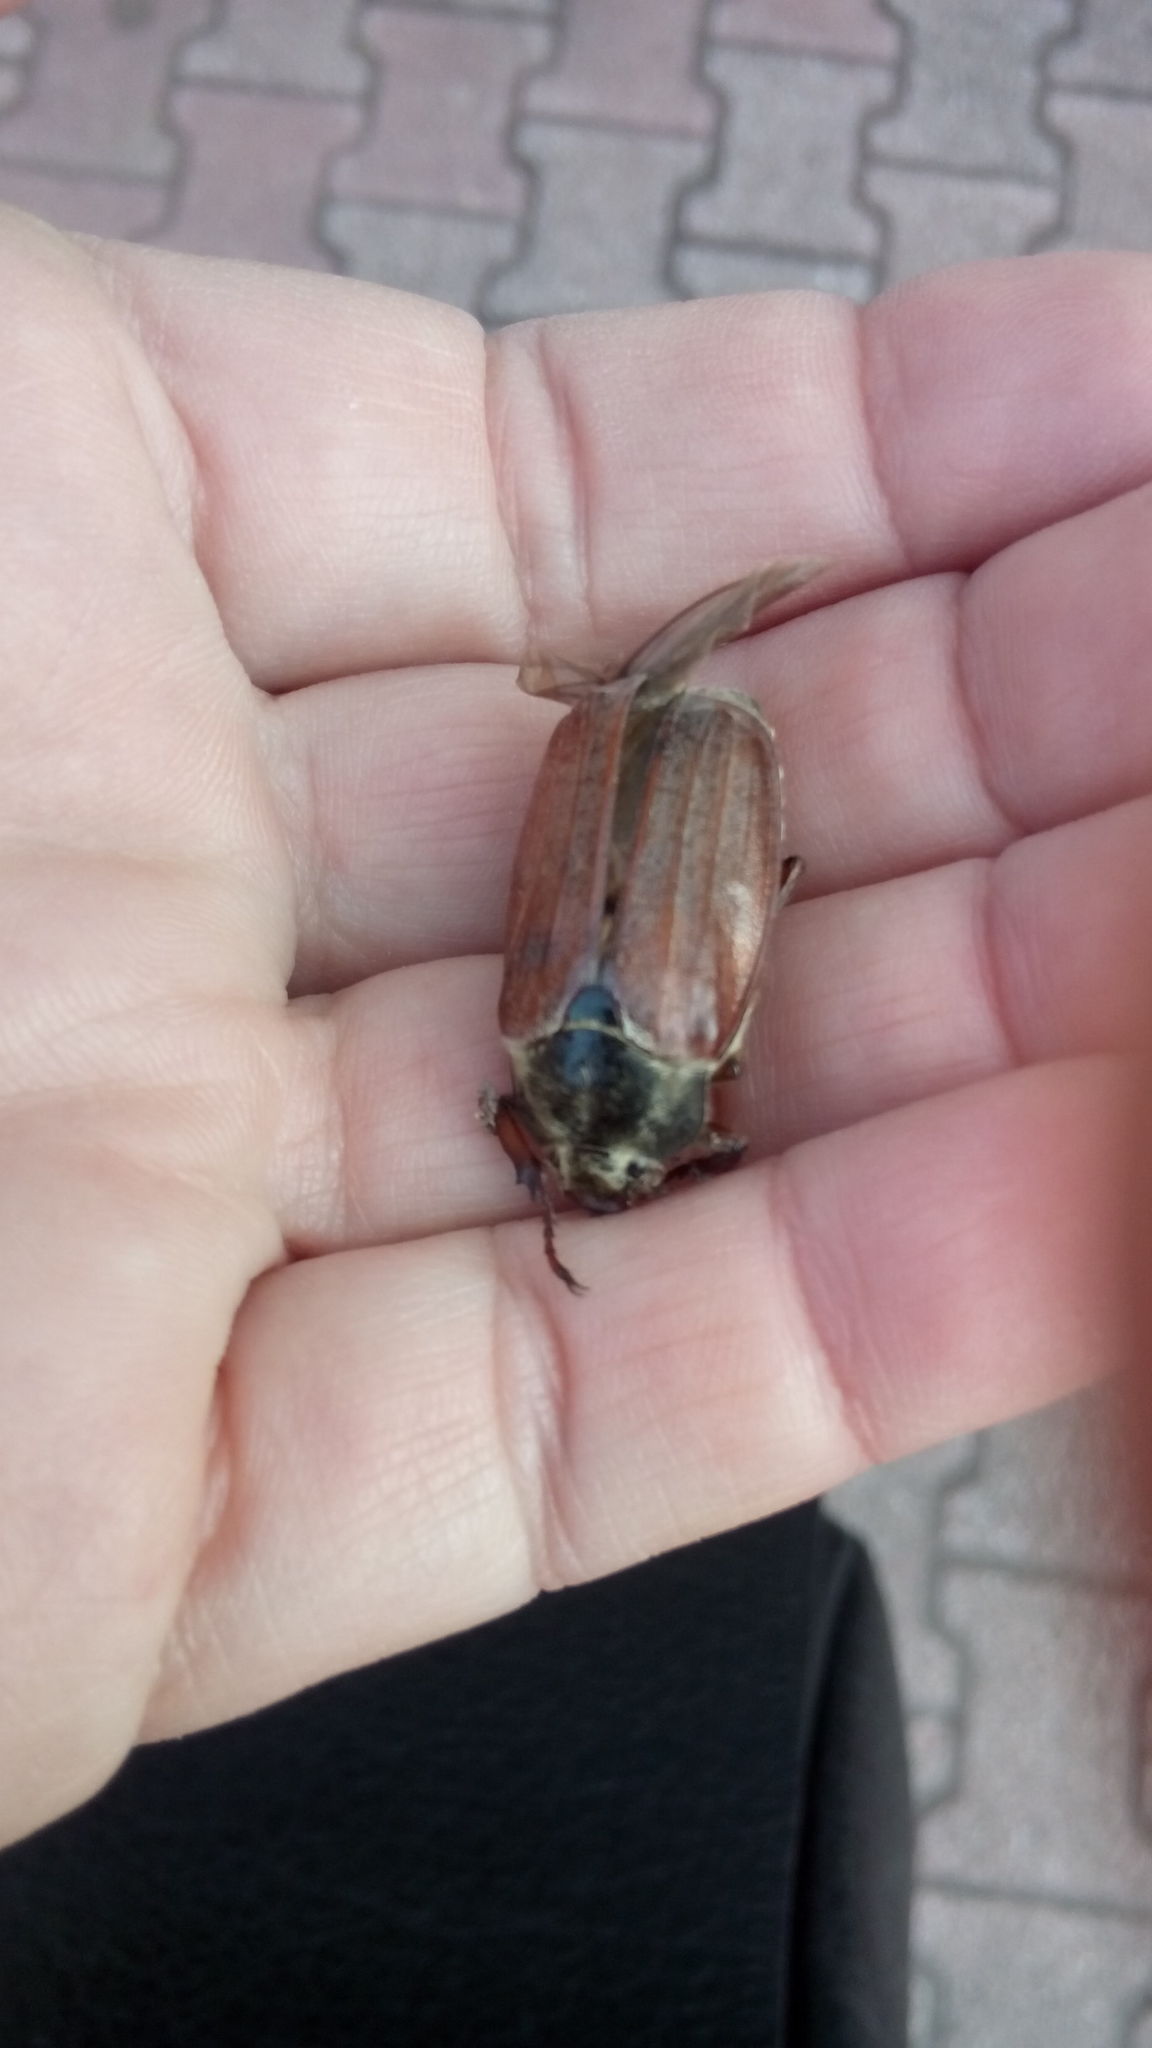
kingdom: Animalia
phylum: Arthropoda
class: Insecta
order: Coleoptera
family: Scarabaeidae
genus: Melolontha
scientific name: Melolontha melolontha
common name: Cockchafer maybeetle
